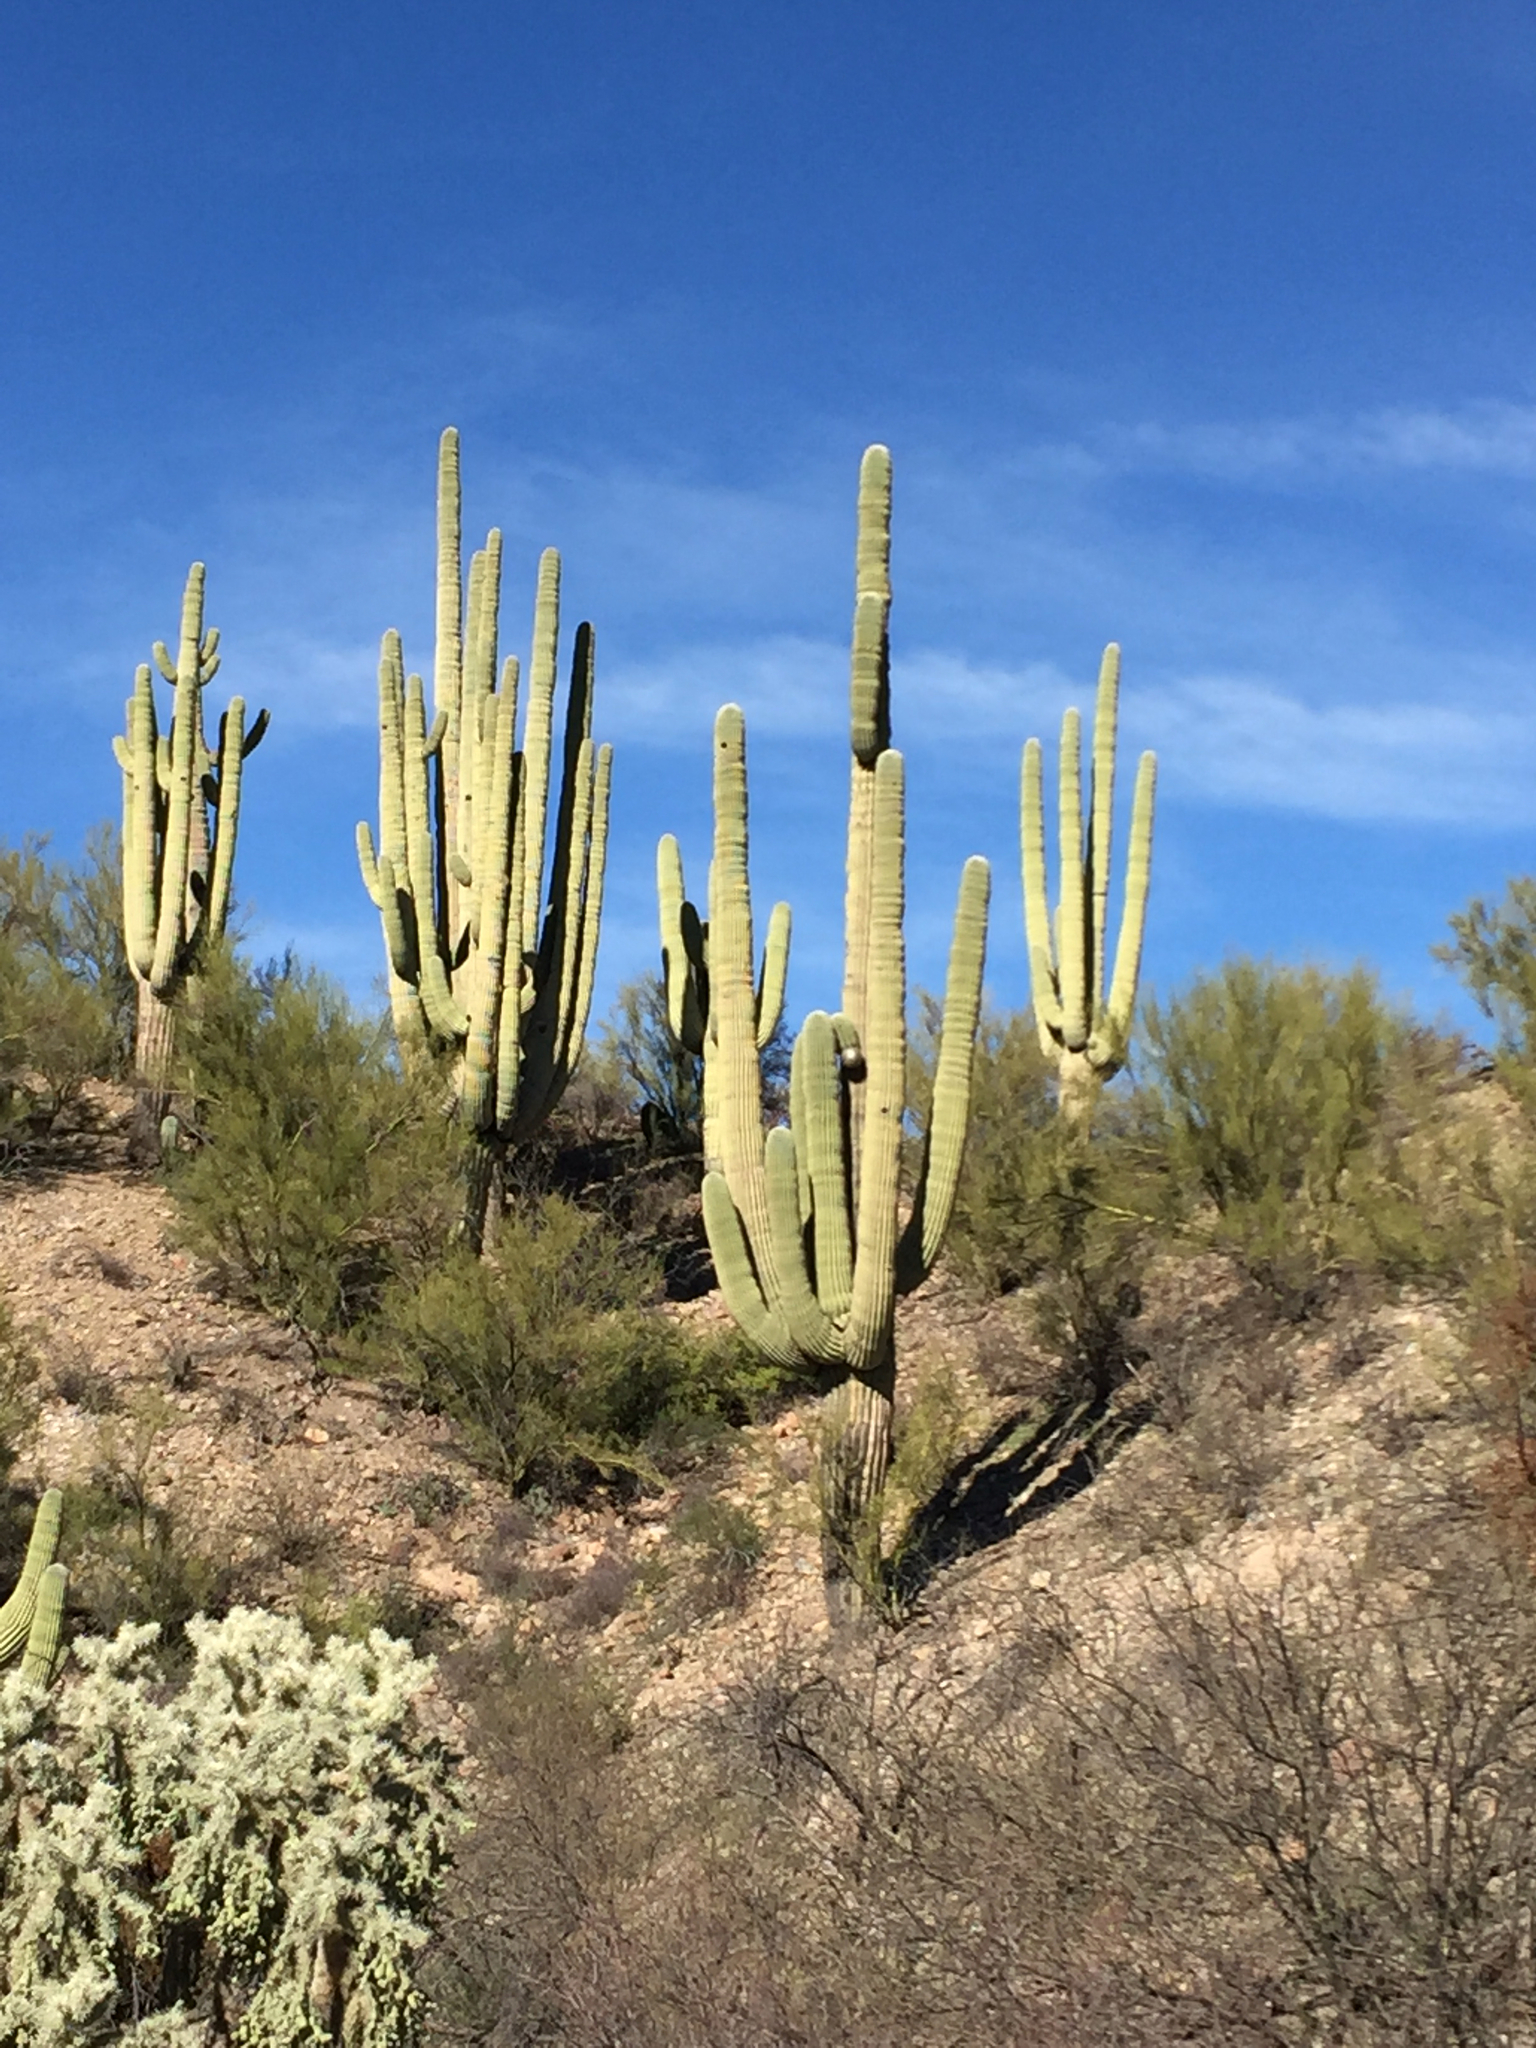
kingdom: Plantae
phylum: Tracheophyta
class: Magnoliopsida
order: Caryophyllales
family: Cactaceae
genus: Carnegiea
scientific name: Carnegiea gigantea
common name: Saguaro
